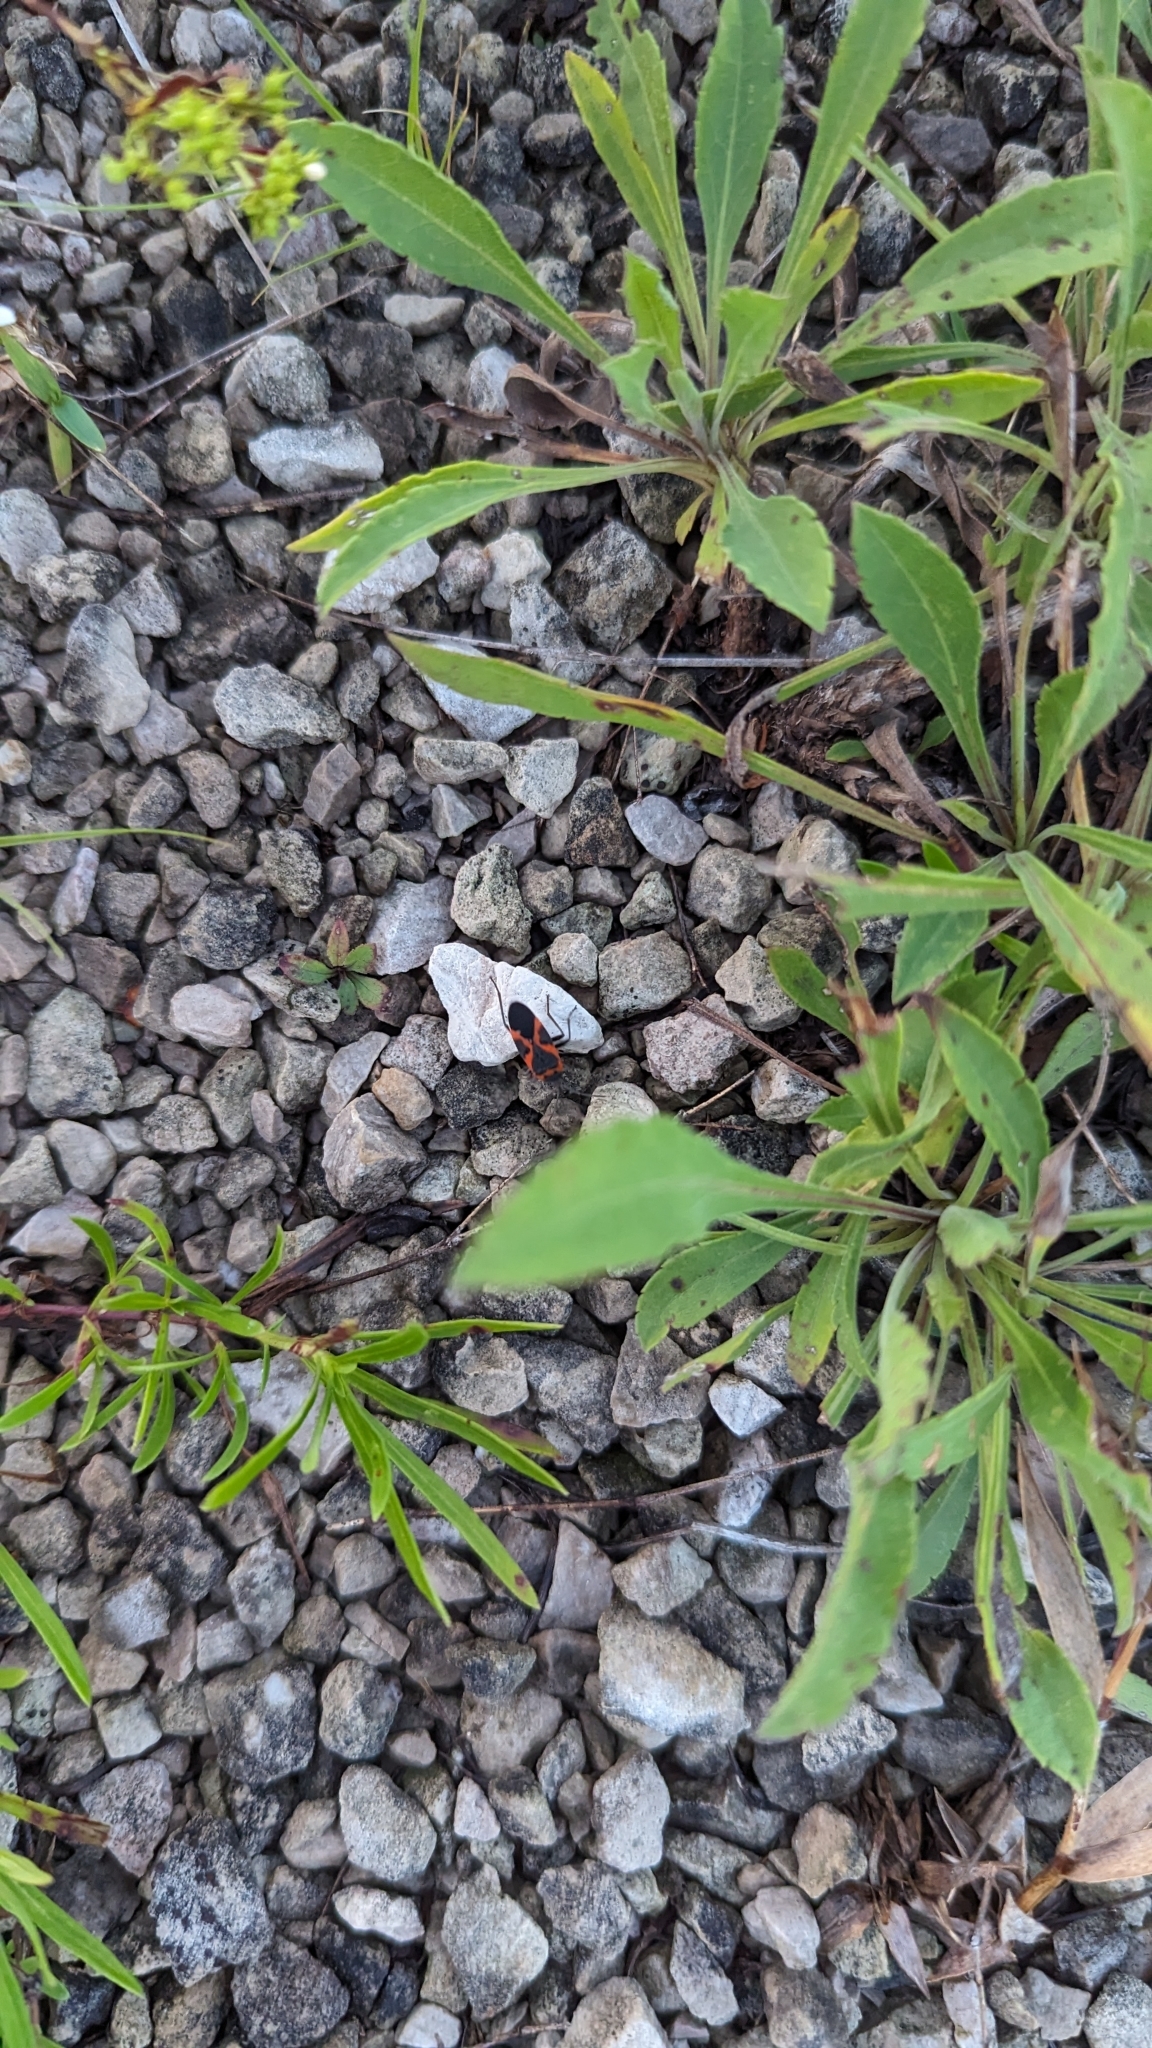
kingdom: Animalia
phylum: Arthropoda
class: Insecta
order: Hemiptera
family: Lygaeidae
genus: Lygaeus
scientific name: Lygaeus kalmii
